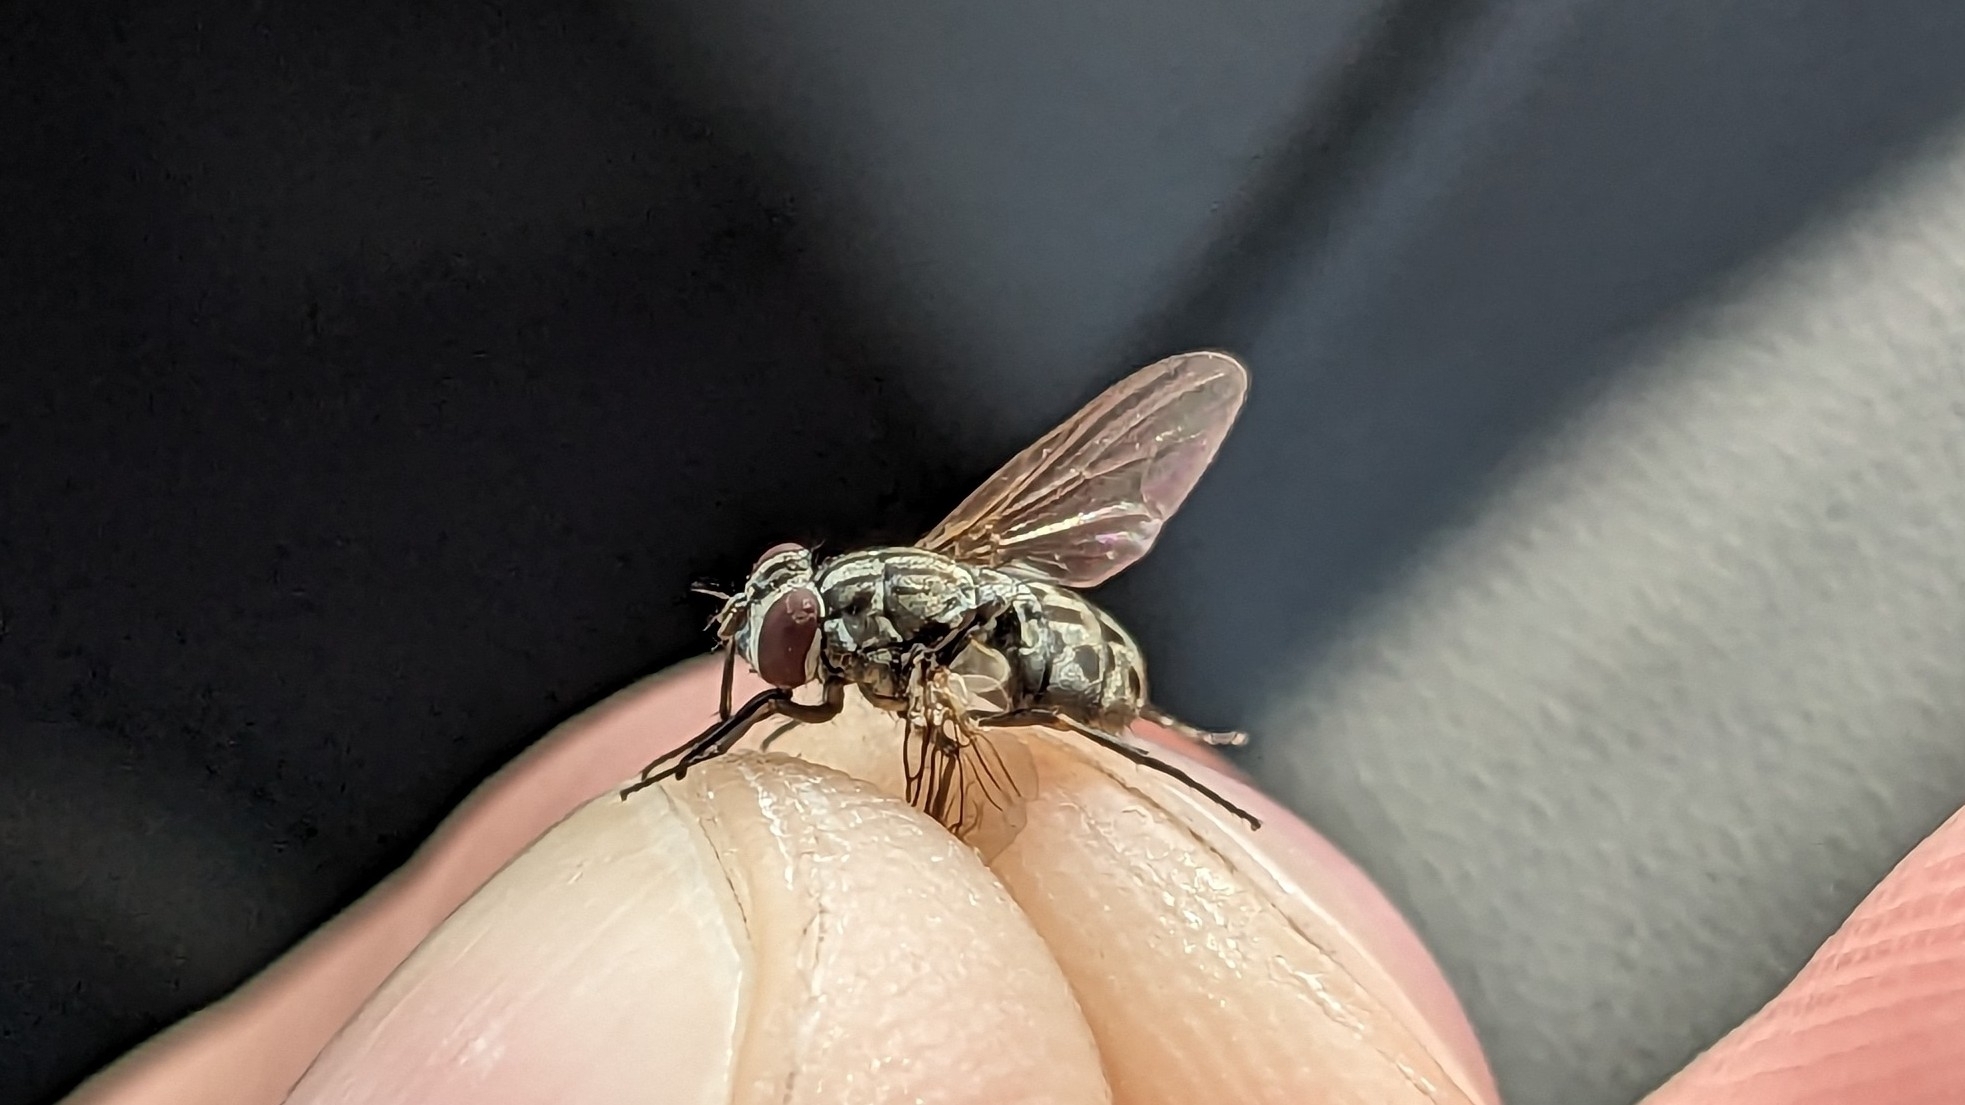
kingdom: Animalia
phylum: Arthropoda
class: Insecta
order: Diptera
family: Muscidae
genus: Stomoxys
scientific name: Stomoxys calcitrans
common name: Stable fly
